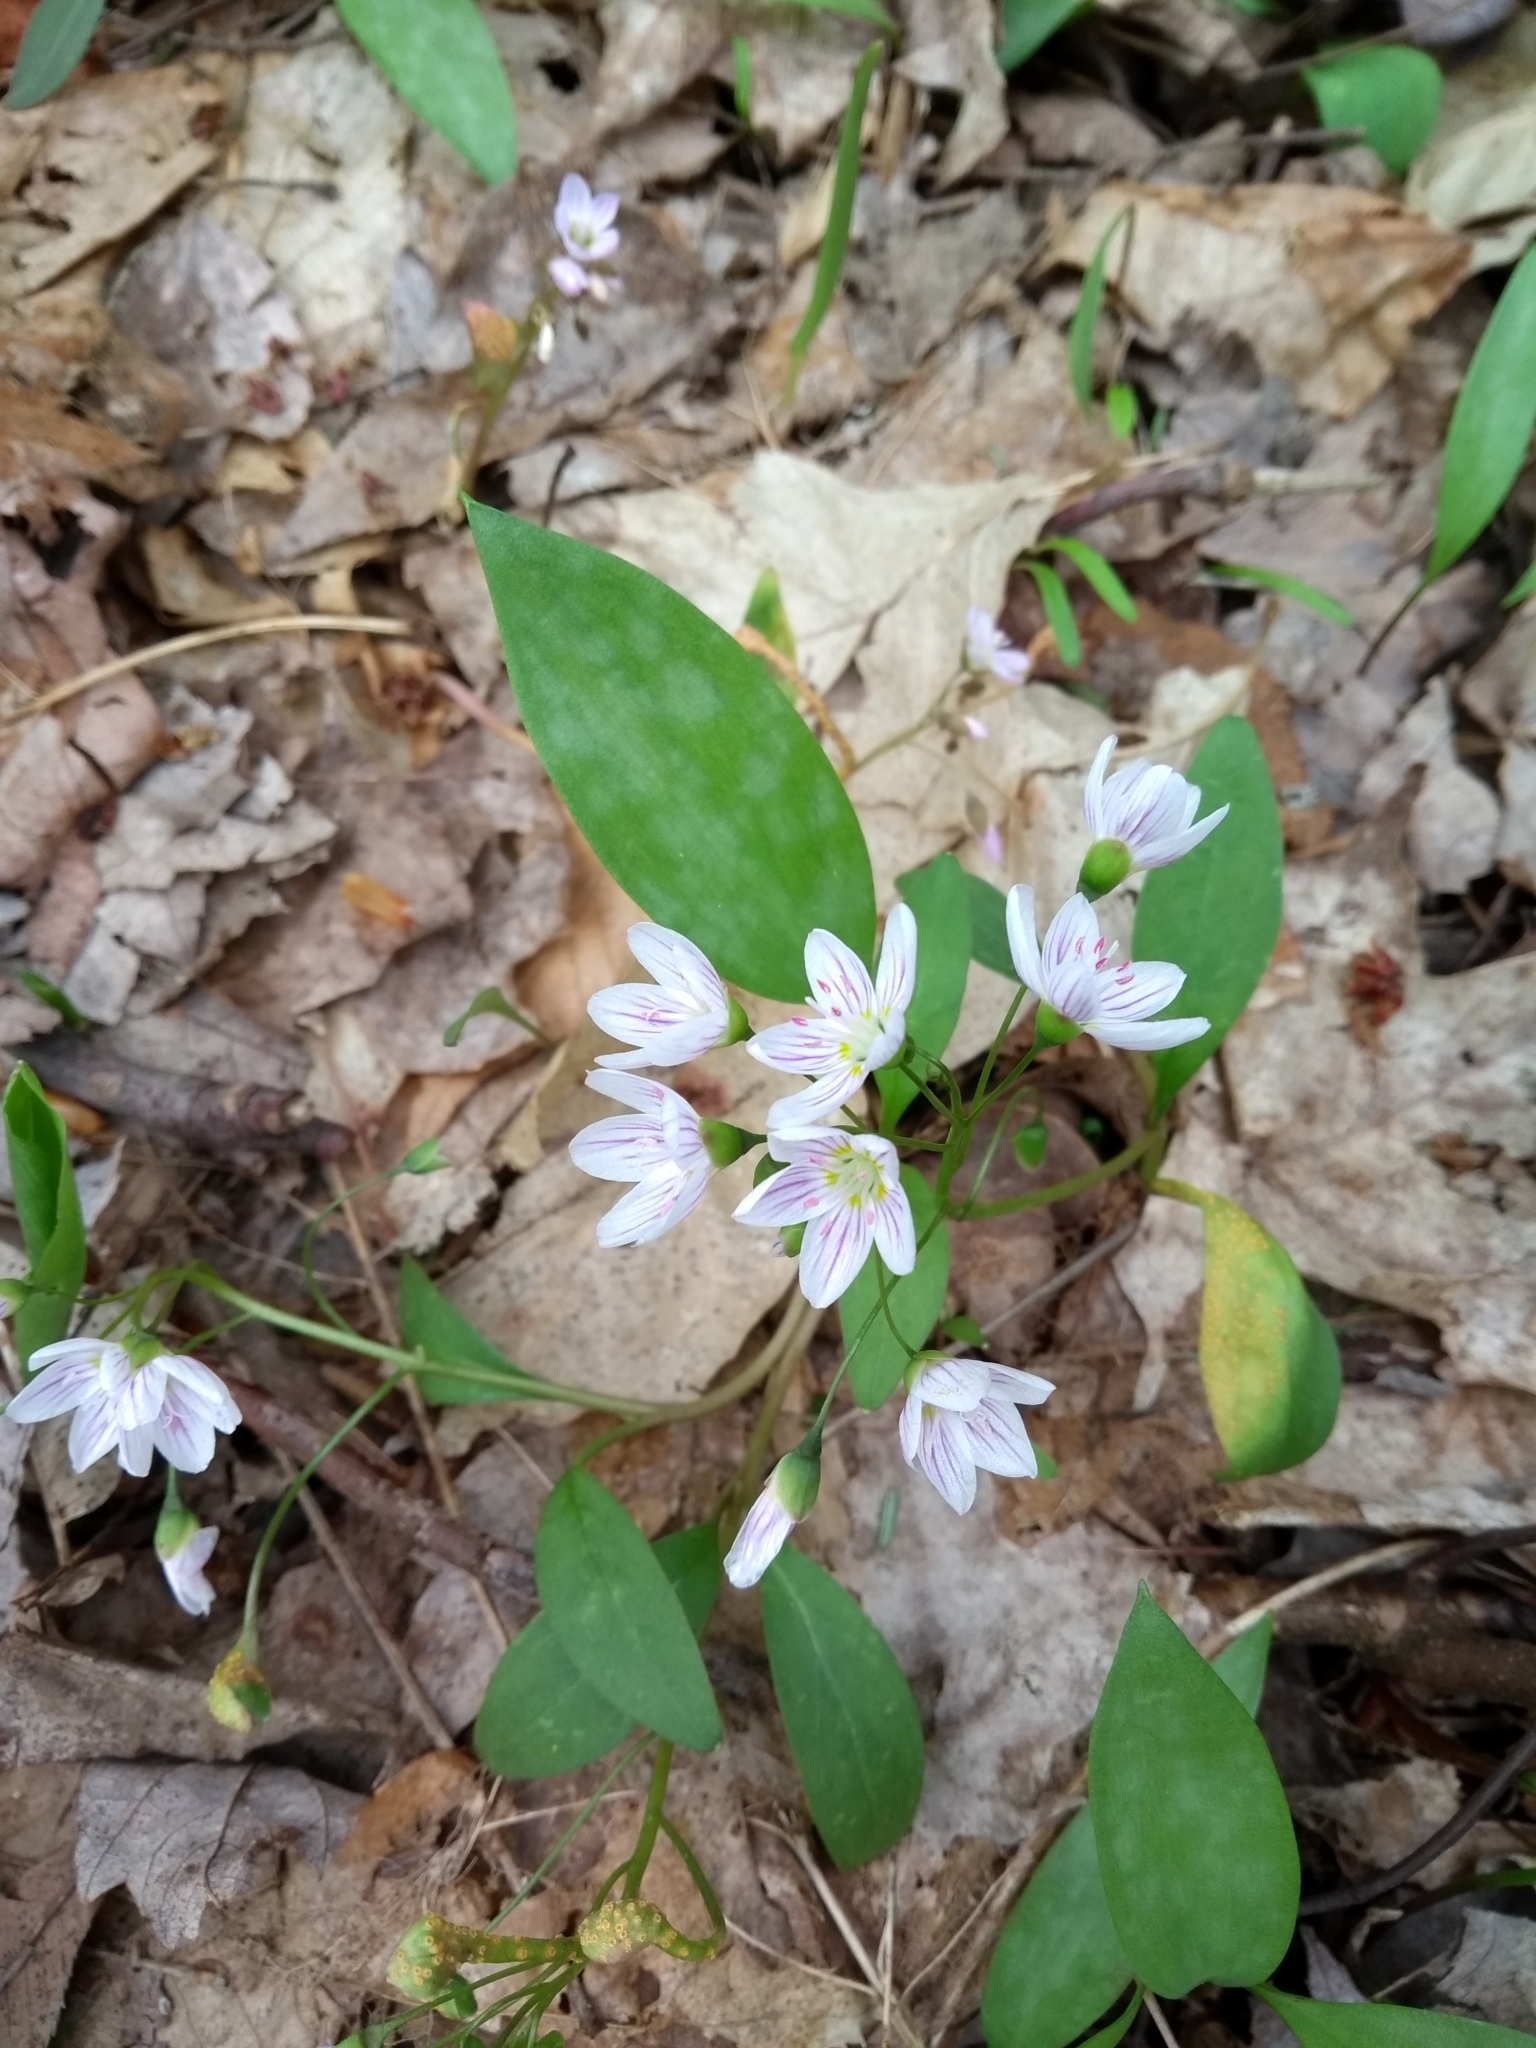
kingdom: Plantae
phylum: Tracheophyta
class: Magnoliopsida
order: Caryophyllales
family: Montiaceae
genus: Claytonia
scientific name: Claytonia caroliniana
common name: Carolina spring beauty
